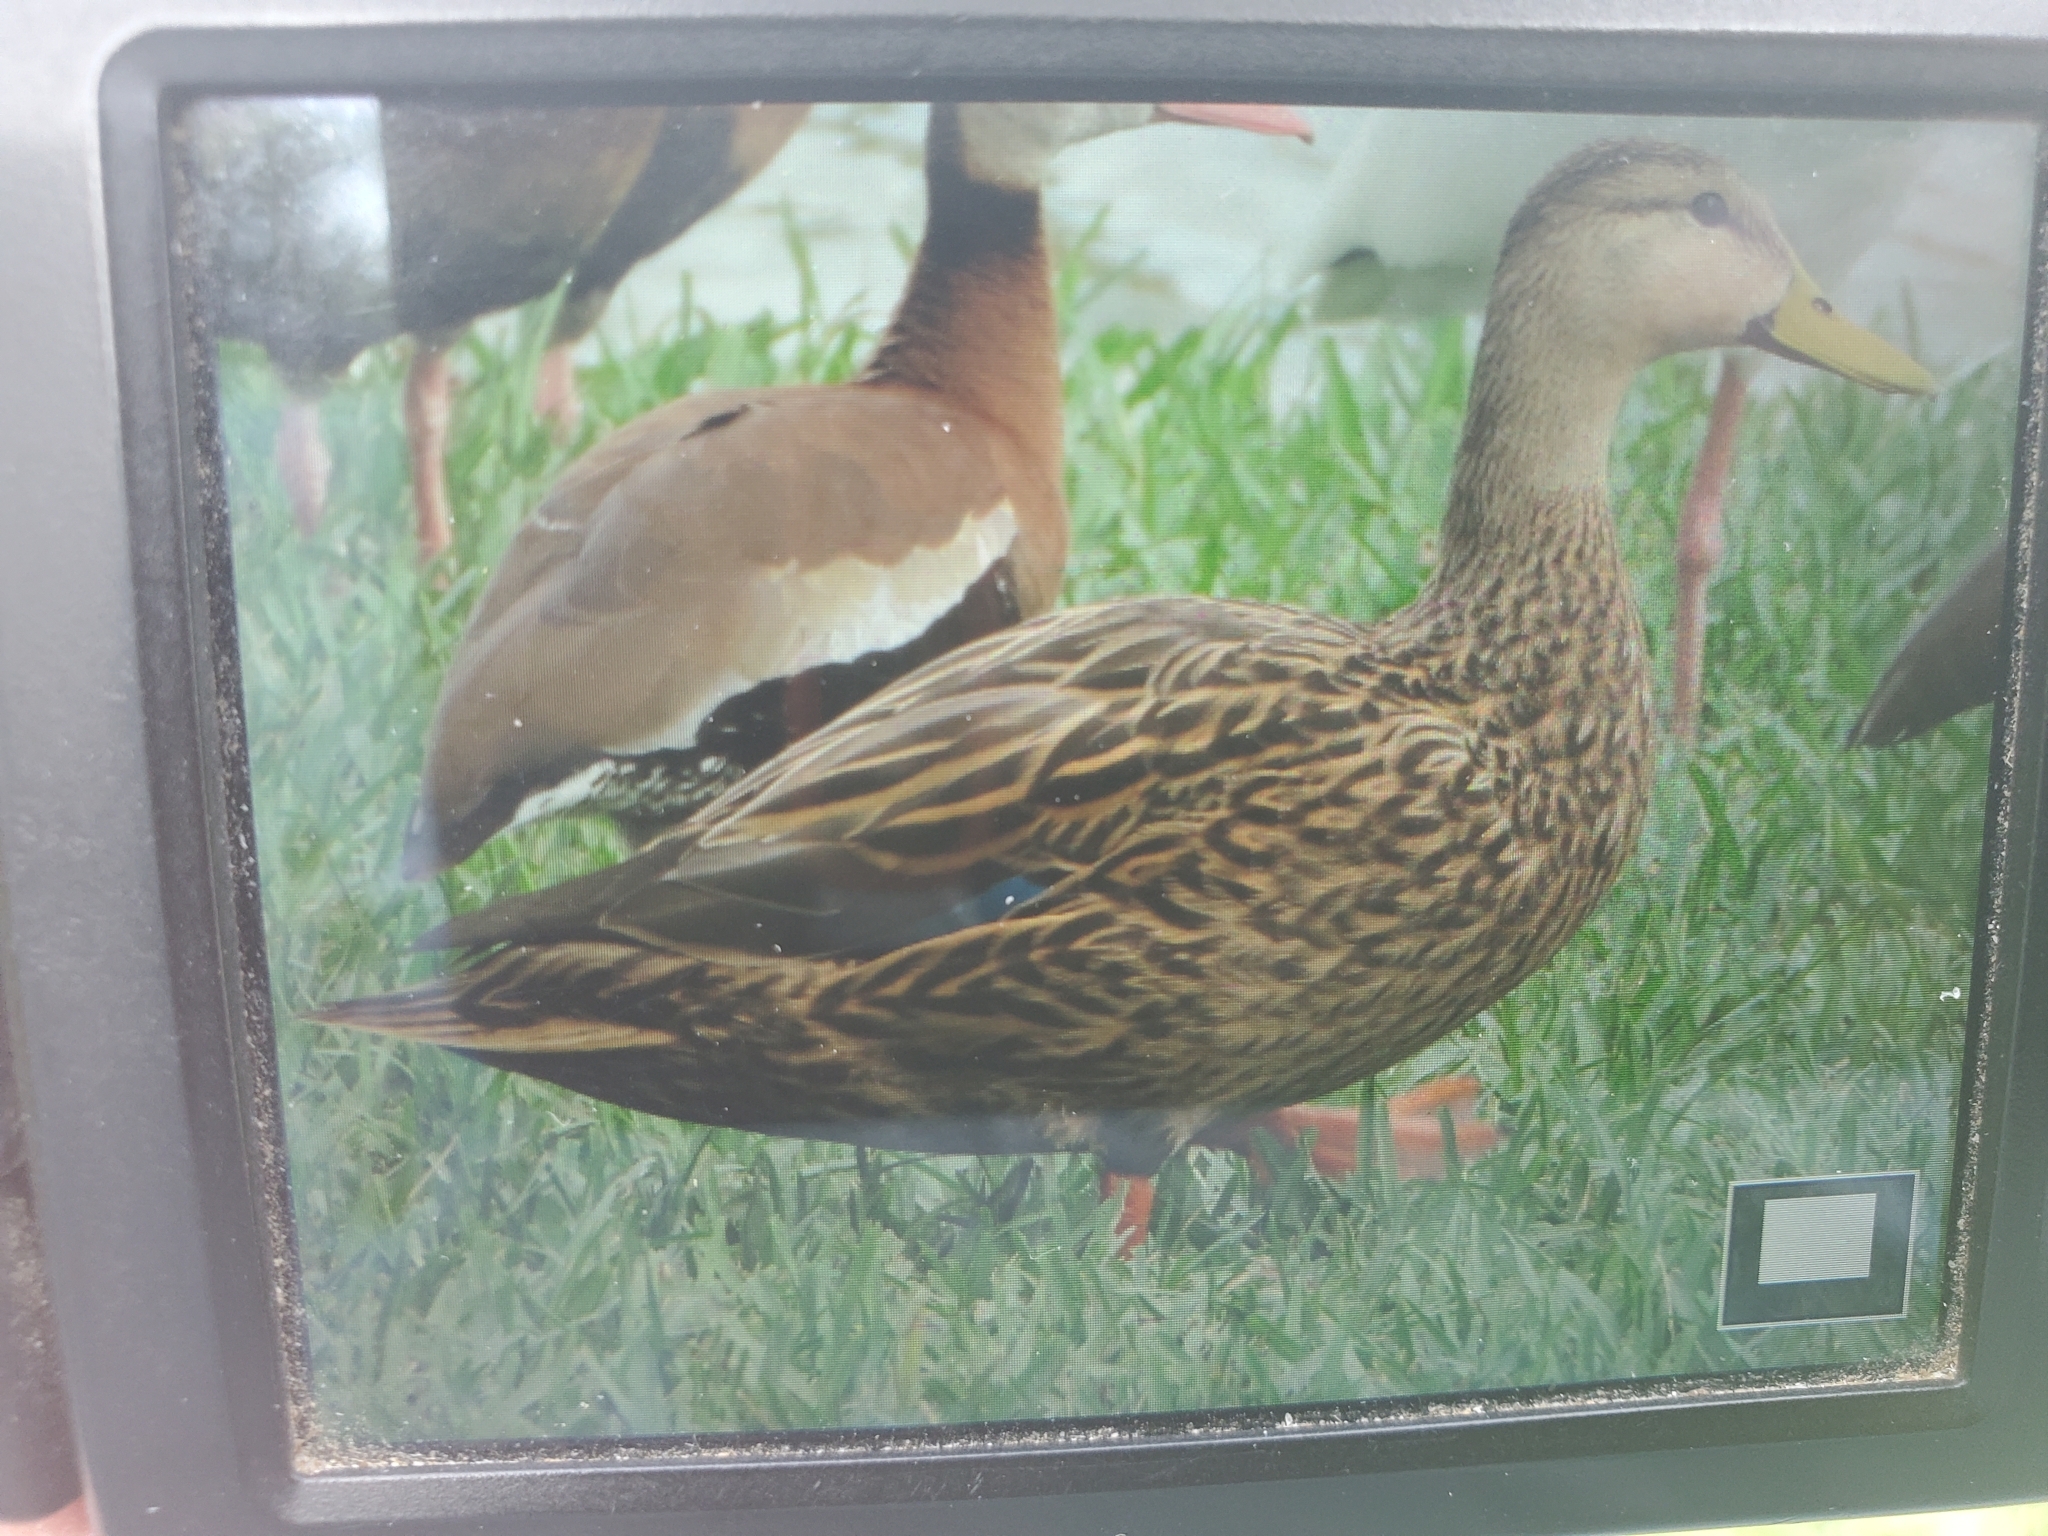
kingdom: Animalia
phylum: Chordata
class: Aves
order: Anseriformes
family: Anatidae
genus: Anas
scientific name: Anas fulvigula
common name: Mottled duck
